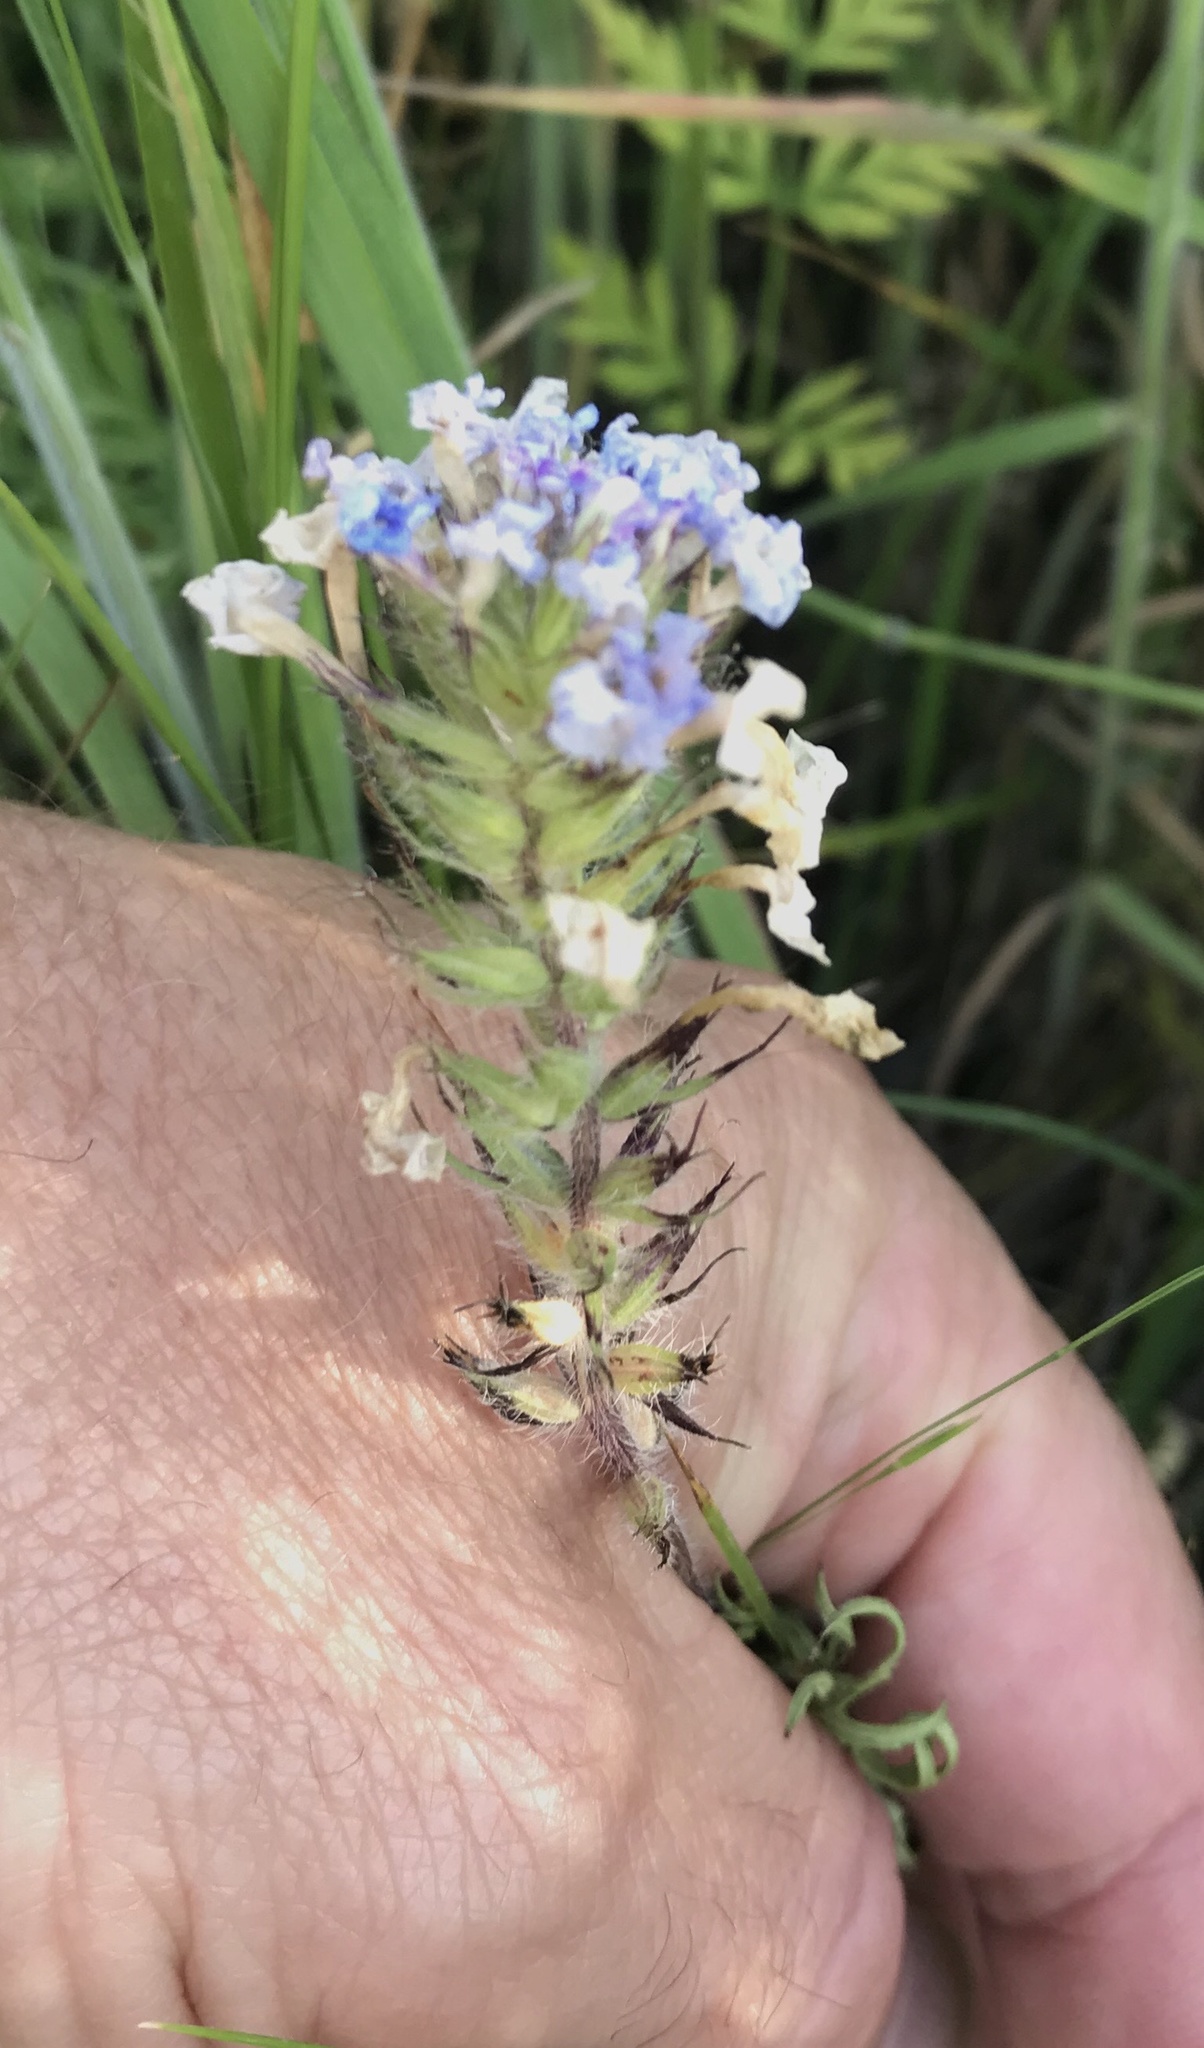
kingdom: Plantae
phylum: Tracheophyta
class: Magnoliopsida
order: Lamiales
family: Verbenaceae
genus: Verbena
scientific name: Verbena bipinnatifida
